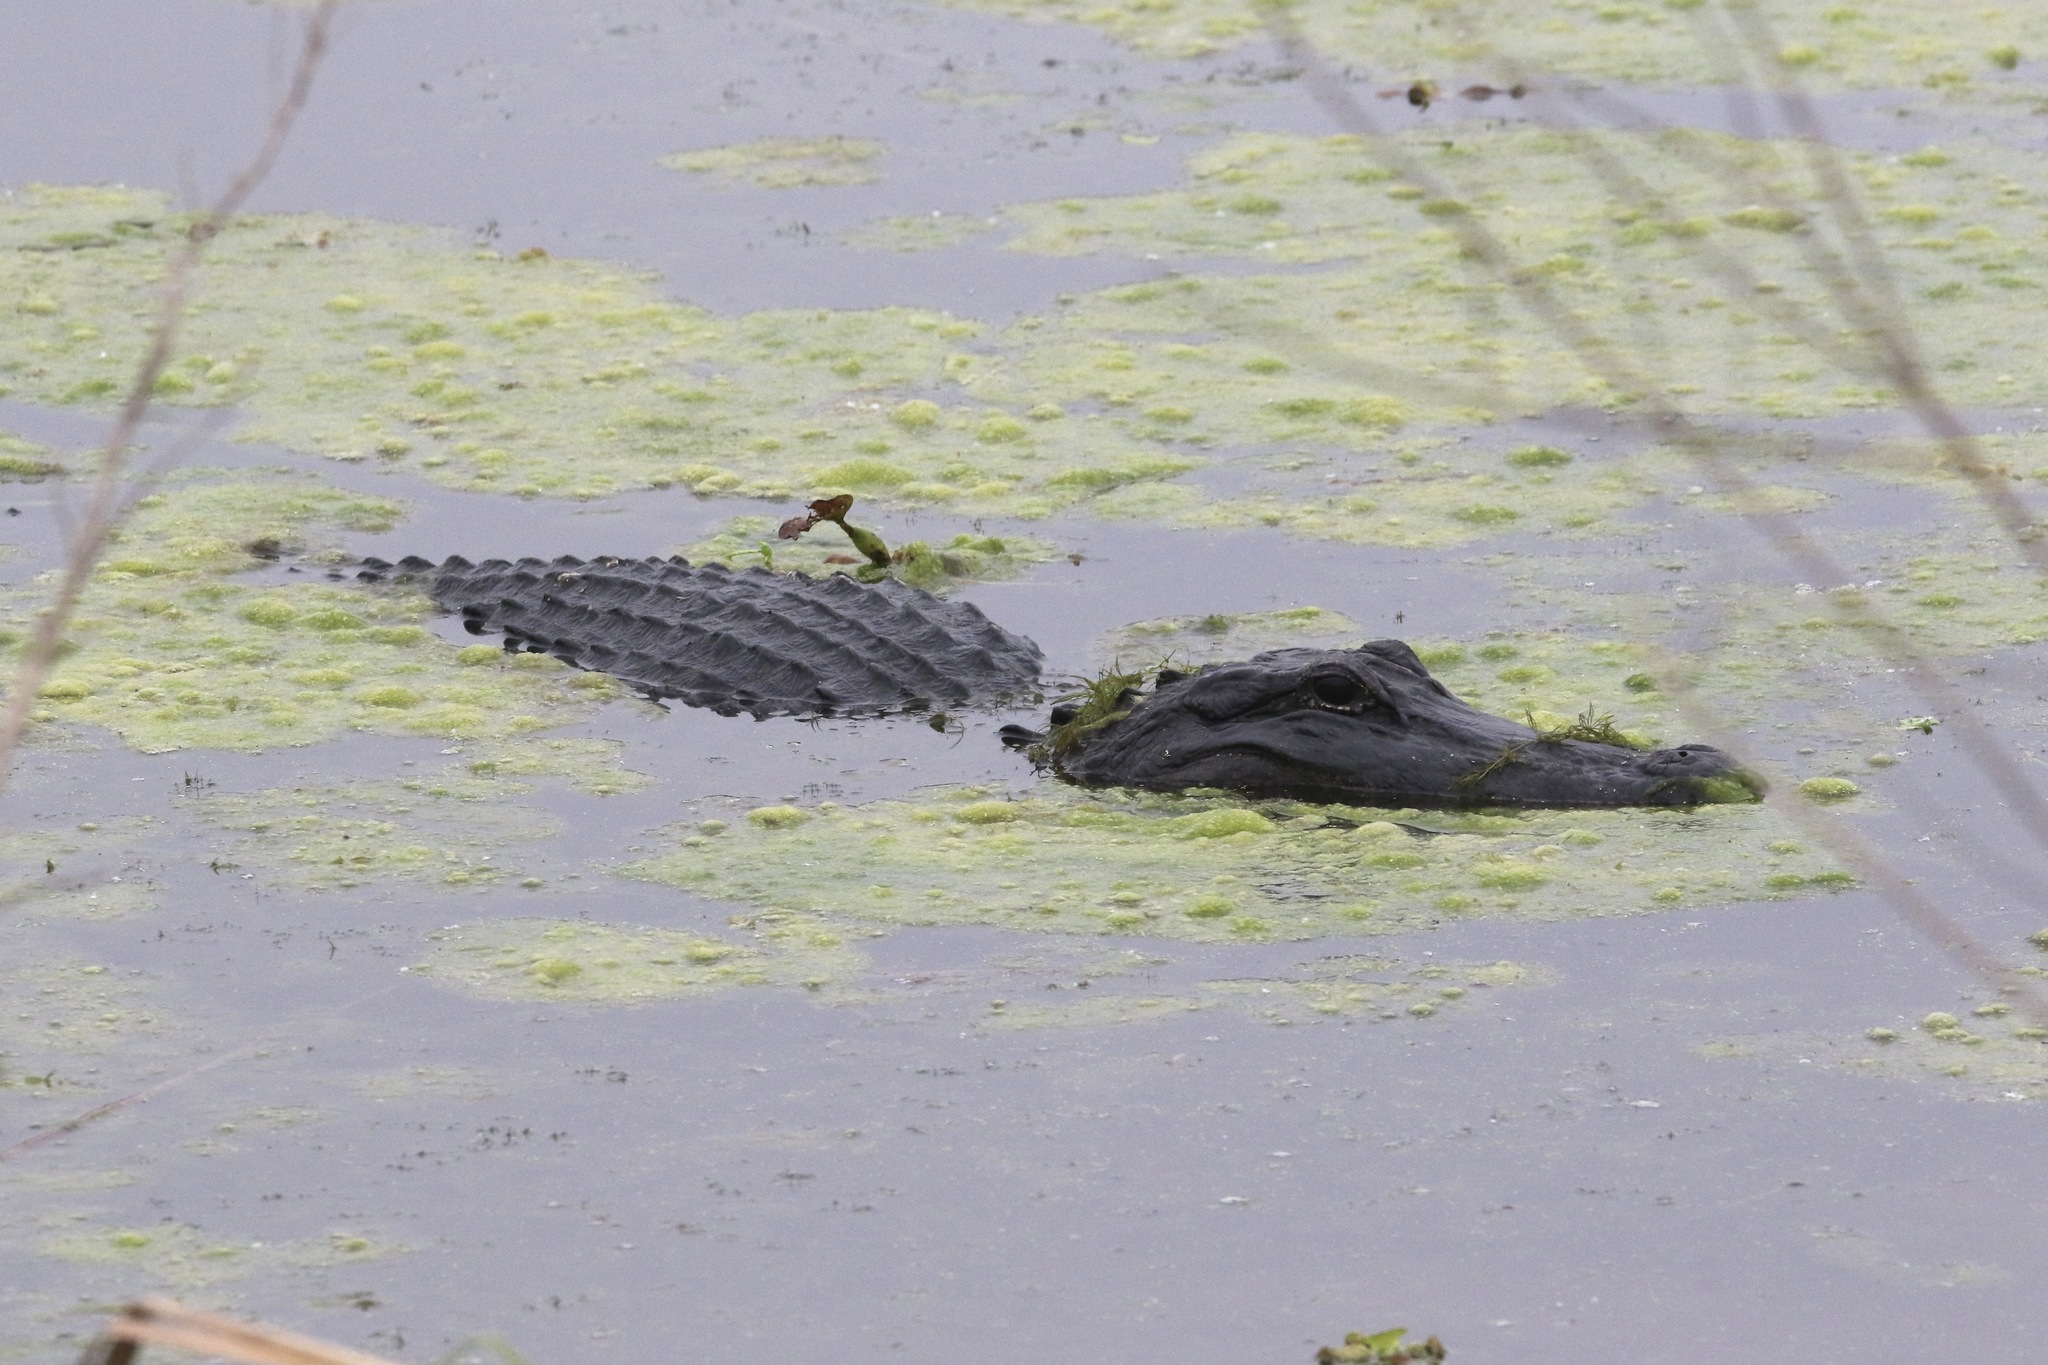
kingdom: Animalia
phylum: Chordata
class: Crocodylia
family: Alligatoridae
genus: Alligator
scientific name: Alligator mississippiensis
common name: American alligator
